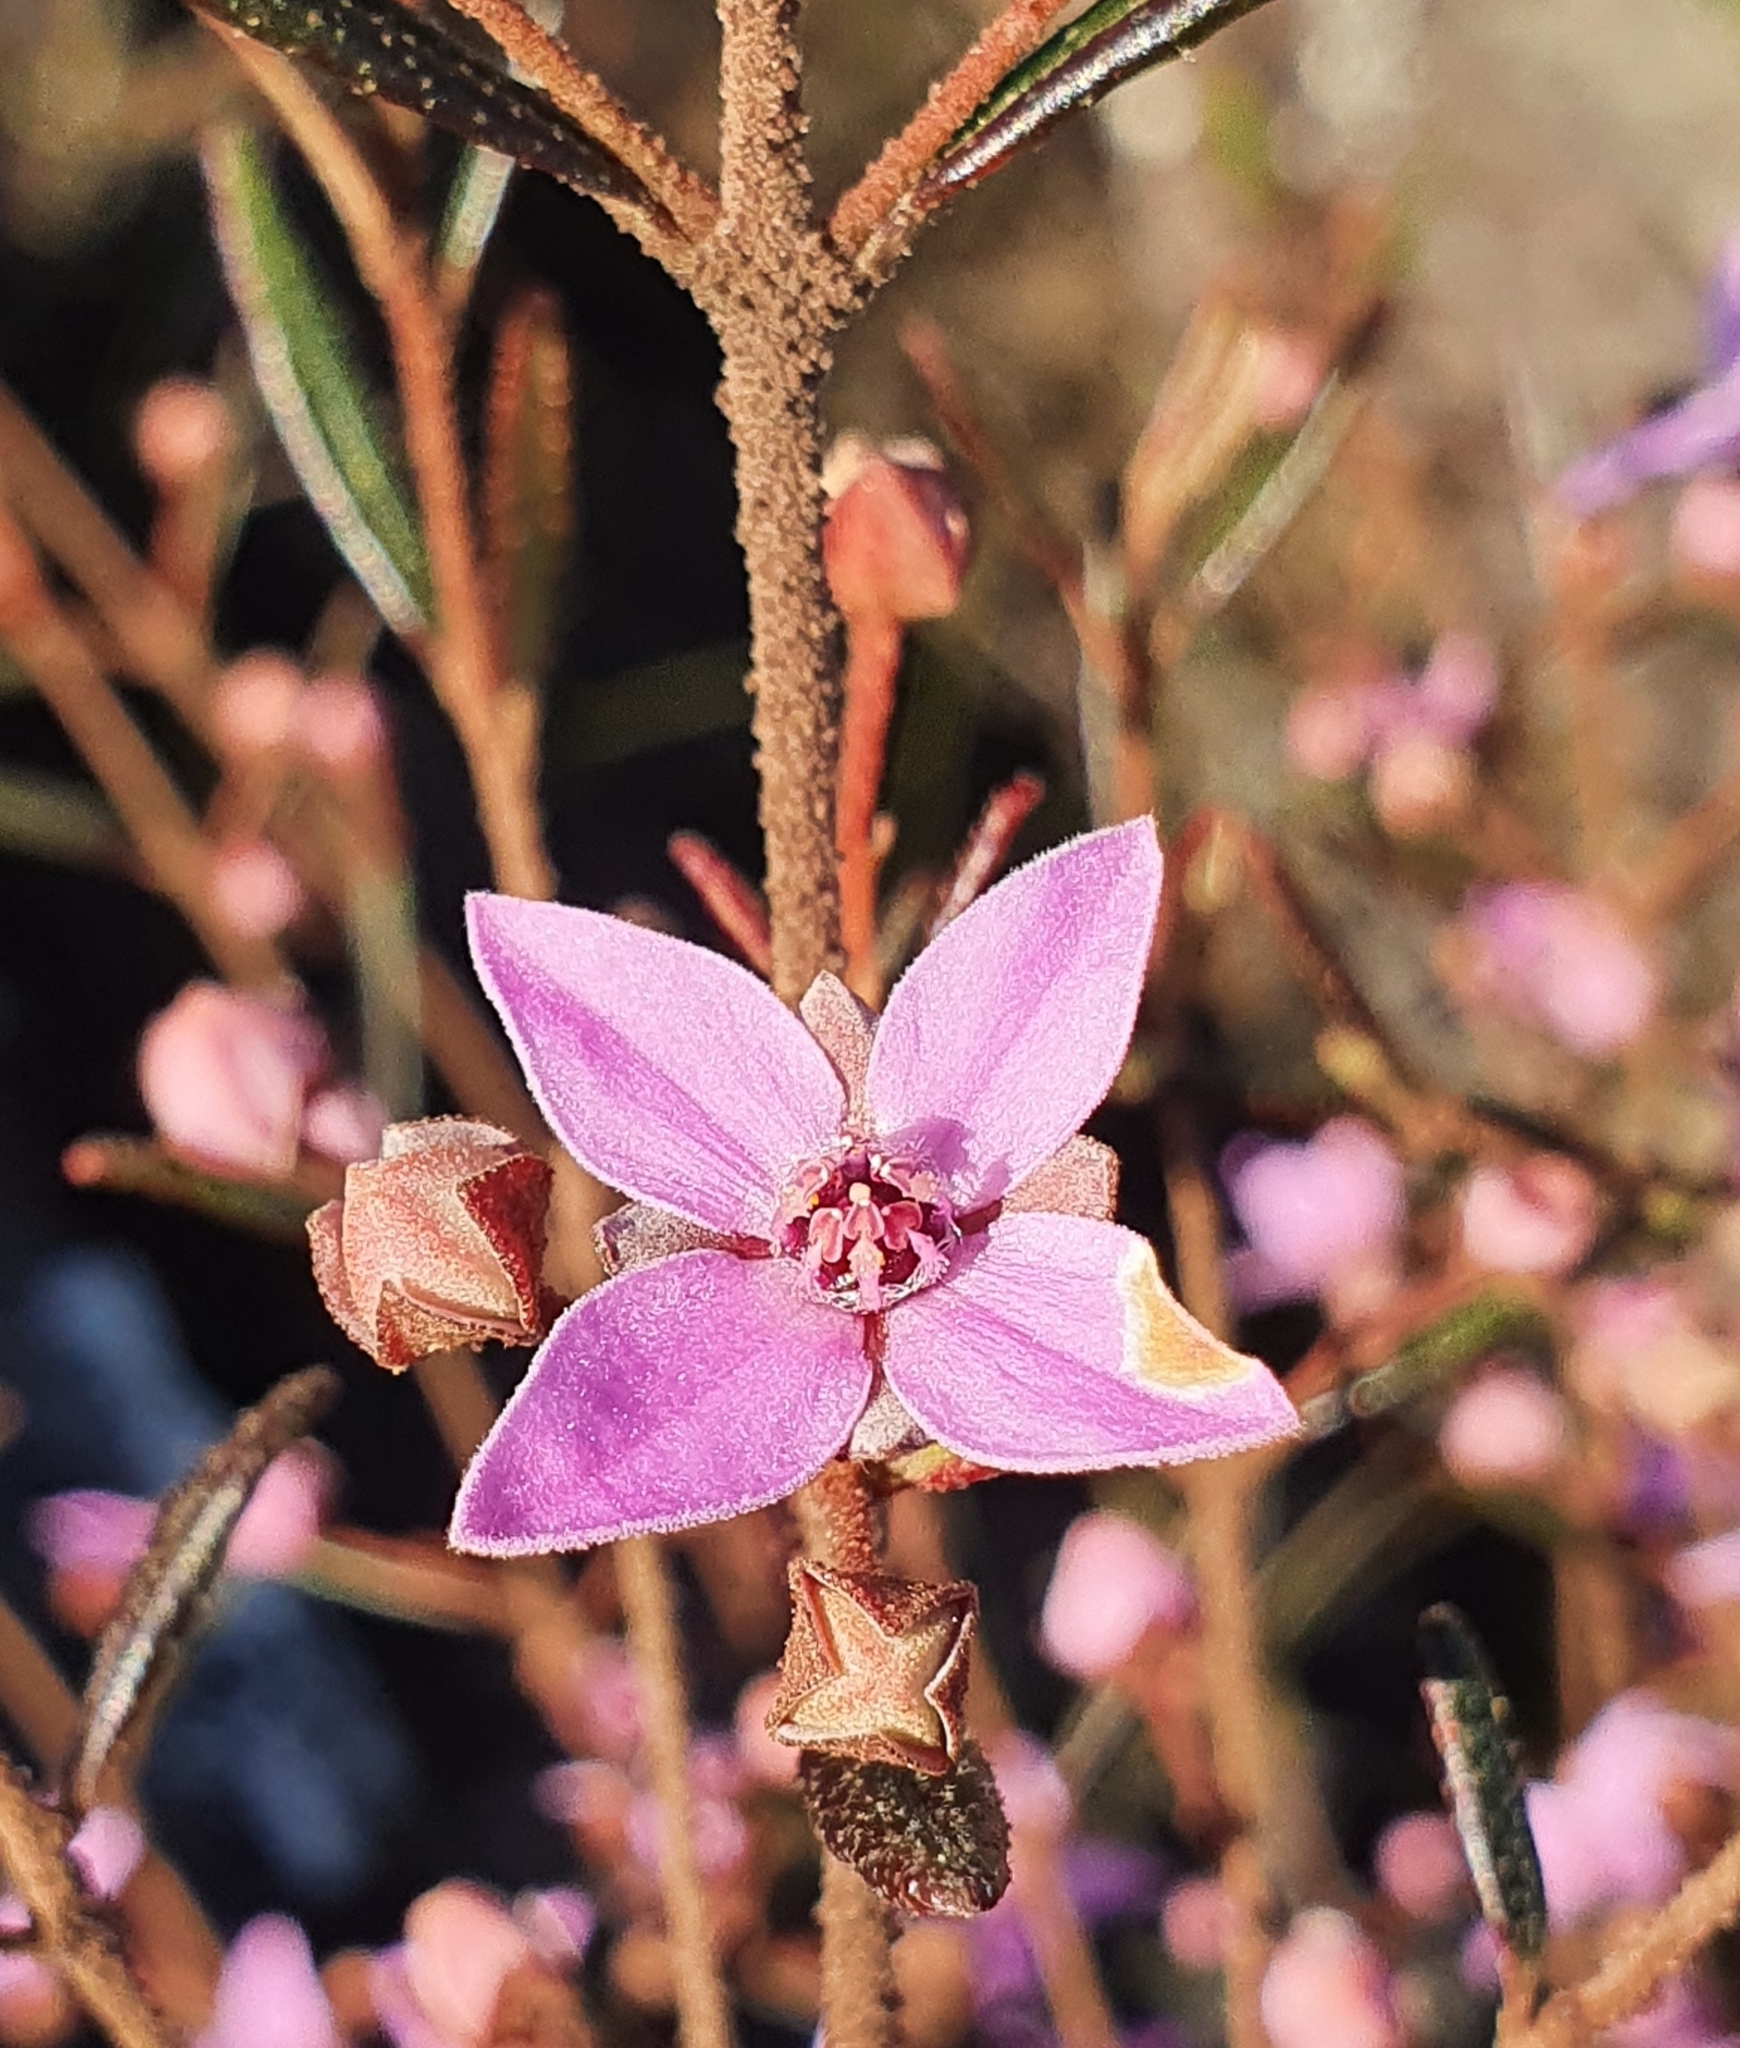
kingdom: Plantae
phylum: Tracheophyta
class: Magnoliopsida
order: Sapindales
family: Rutaceae
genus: Boronia
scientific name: Boronia ledifolia
